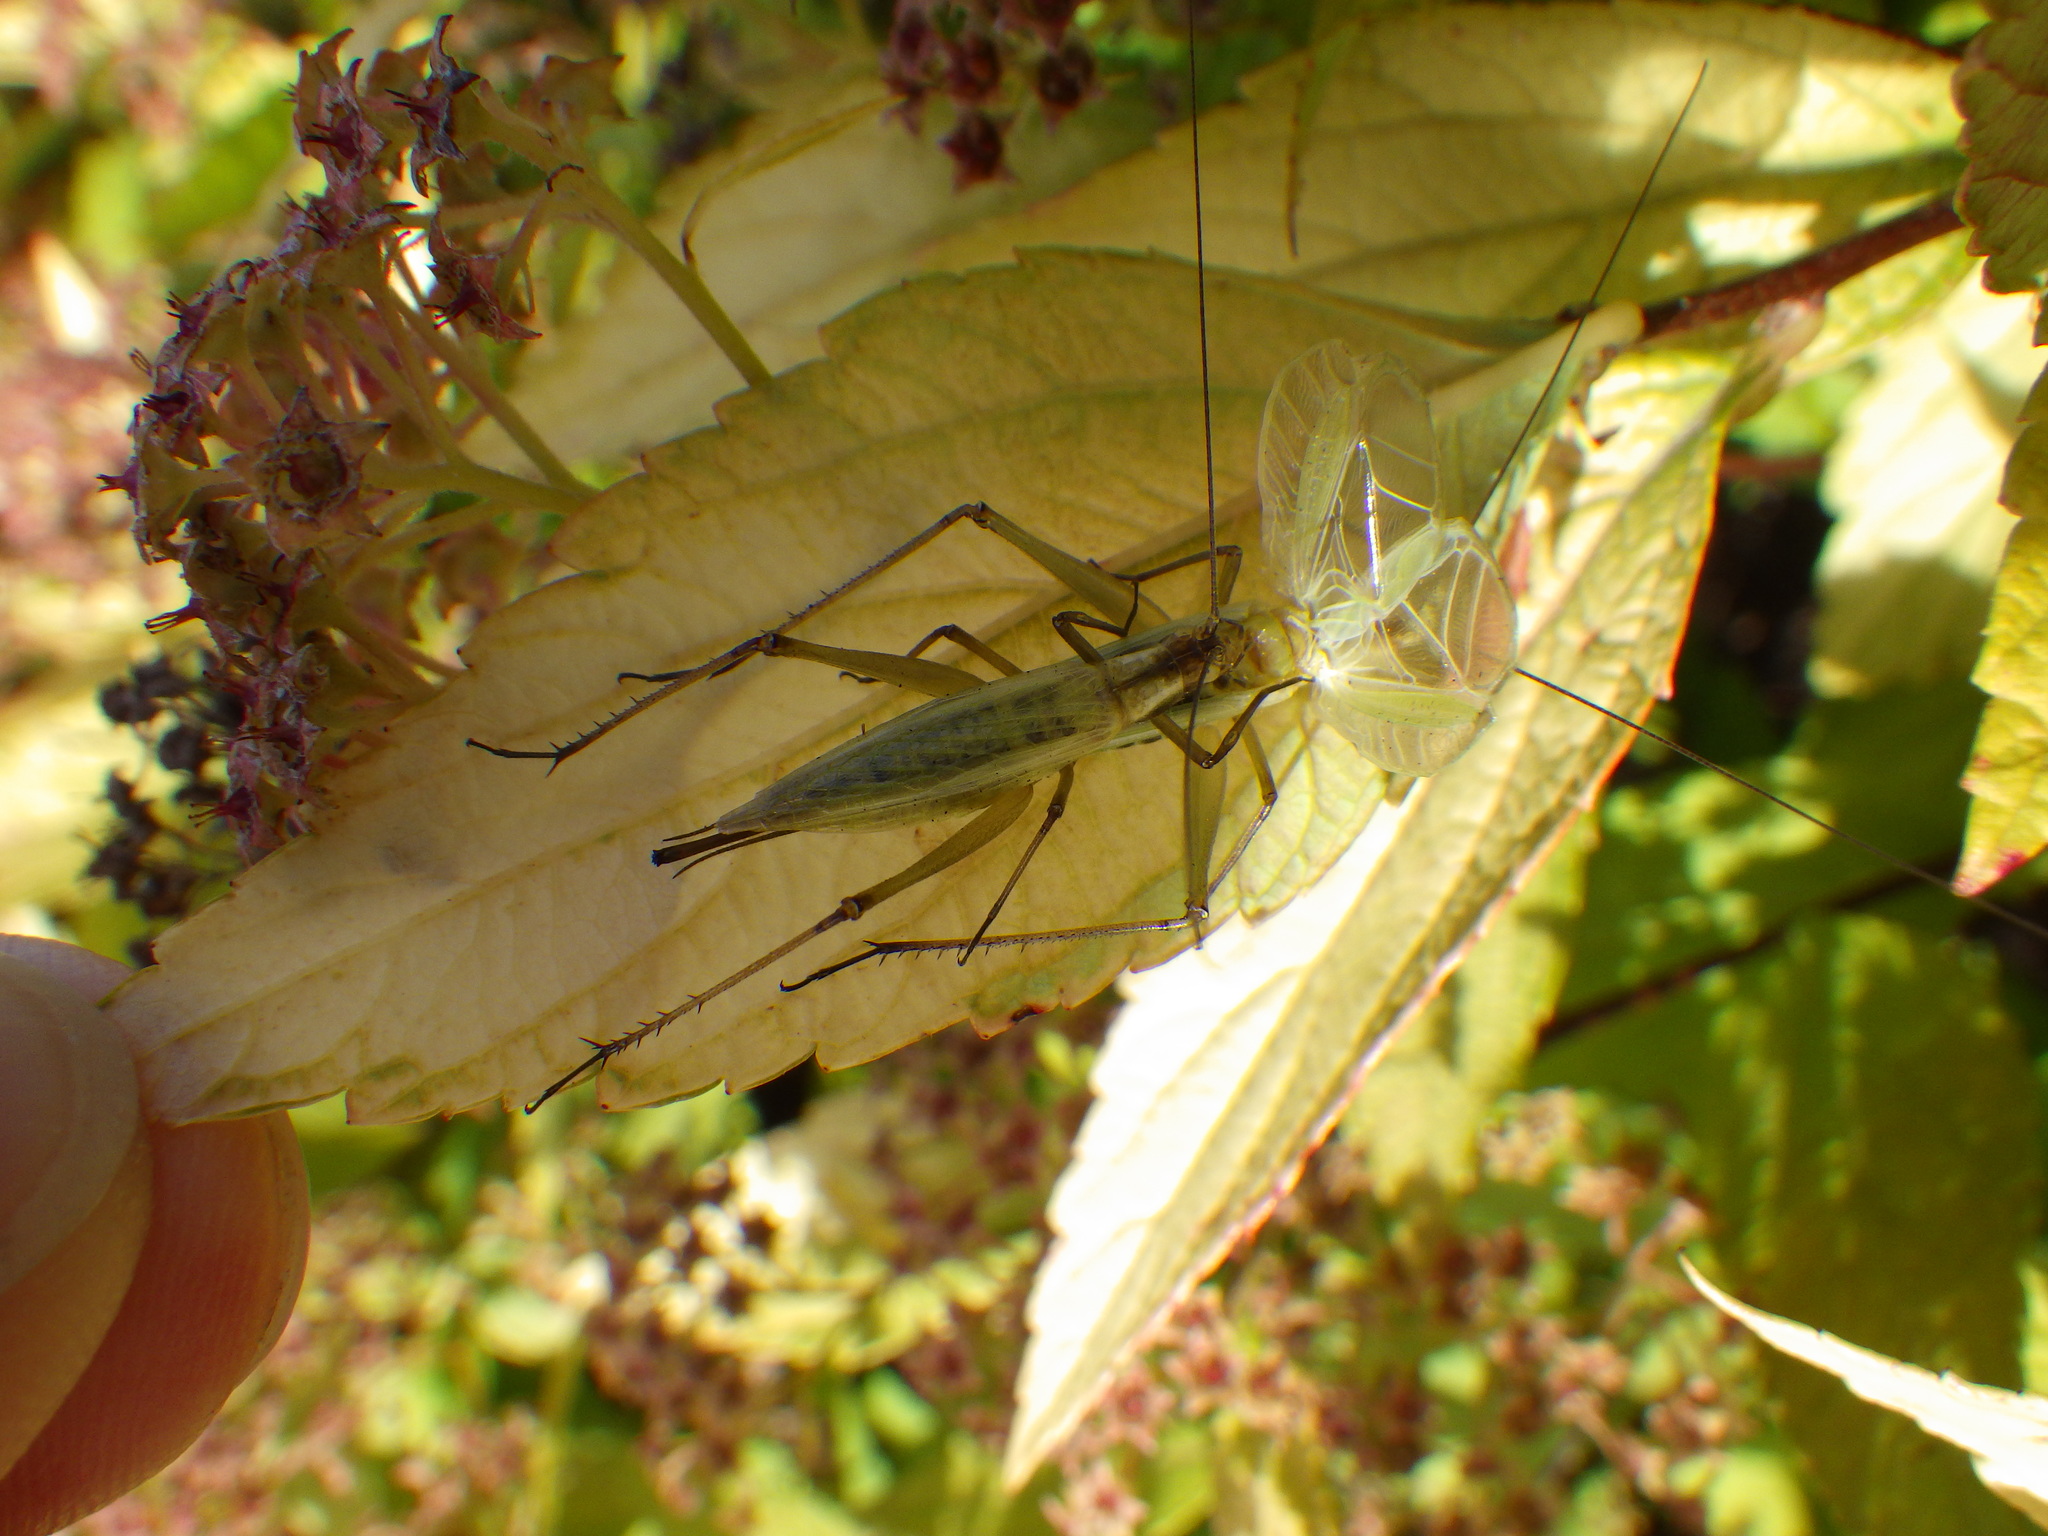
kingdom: Animalia
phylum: Arthropoda
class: Insecta
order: Orthoptera
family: Gryllidae
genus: Oecanthus
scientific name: Oecanthus nigricornis
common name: Black-horned tree cricket
